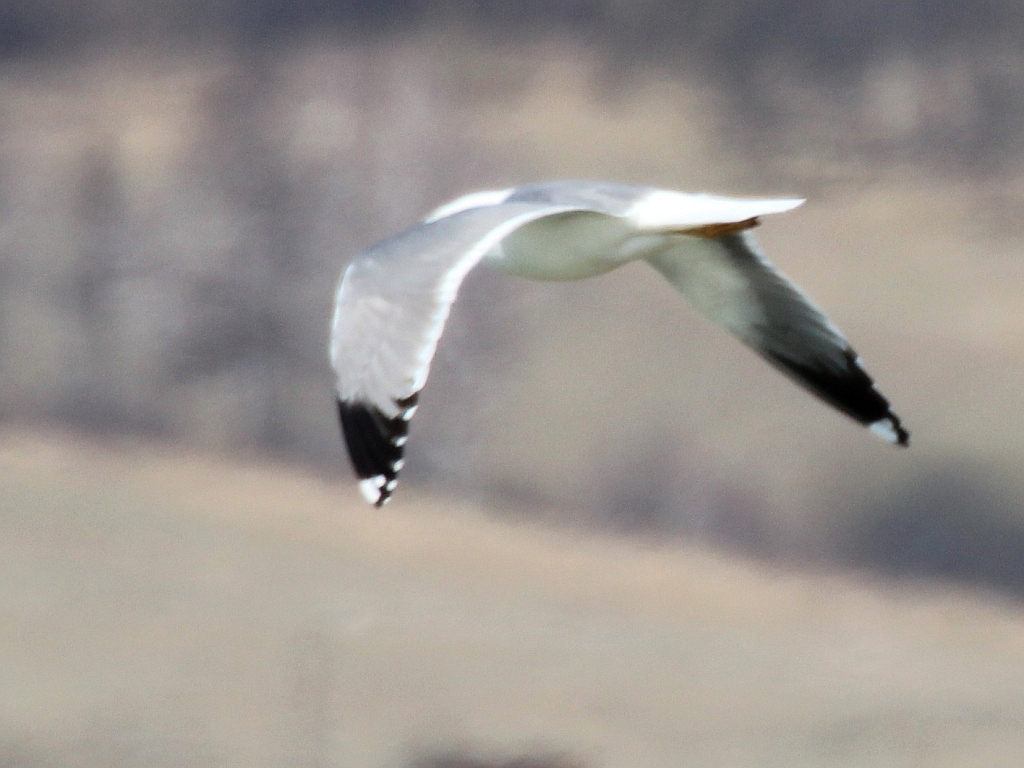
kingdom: Animalia
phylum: Chordata
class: Aves
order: Charadriiformes
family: Laridae
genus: Larus
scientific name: Larus fuscus
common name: Lesser black-backed gull
